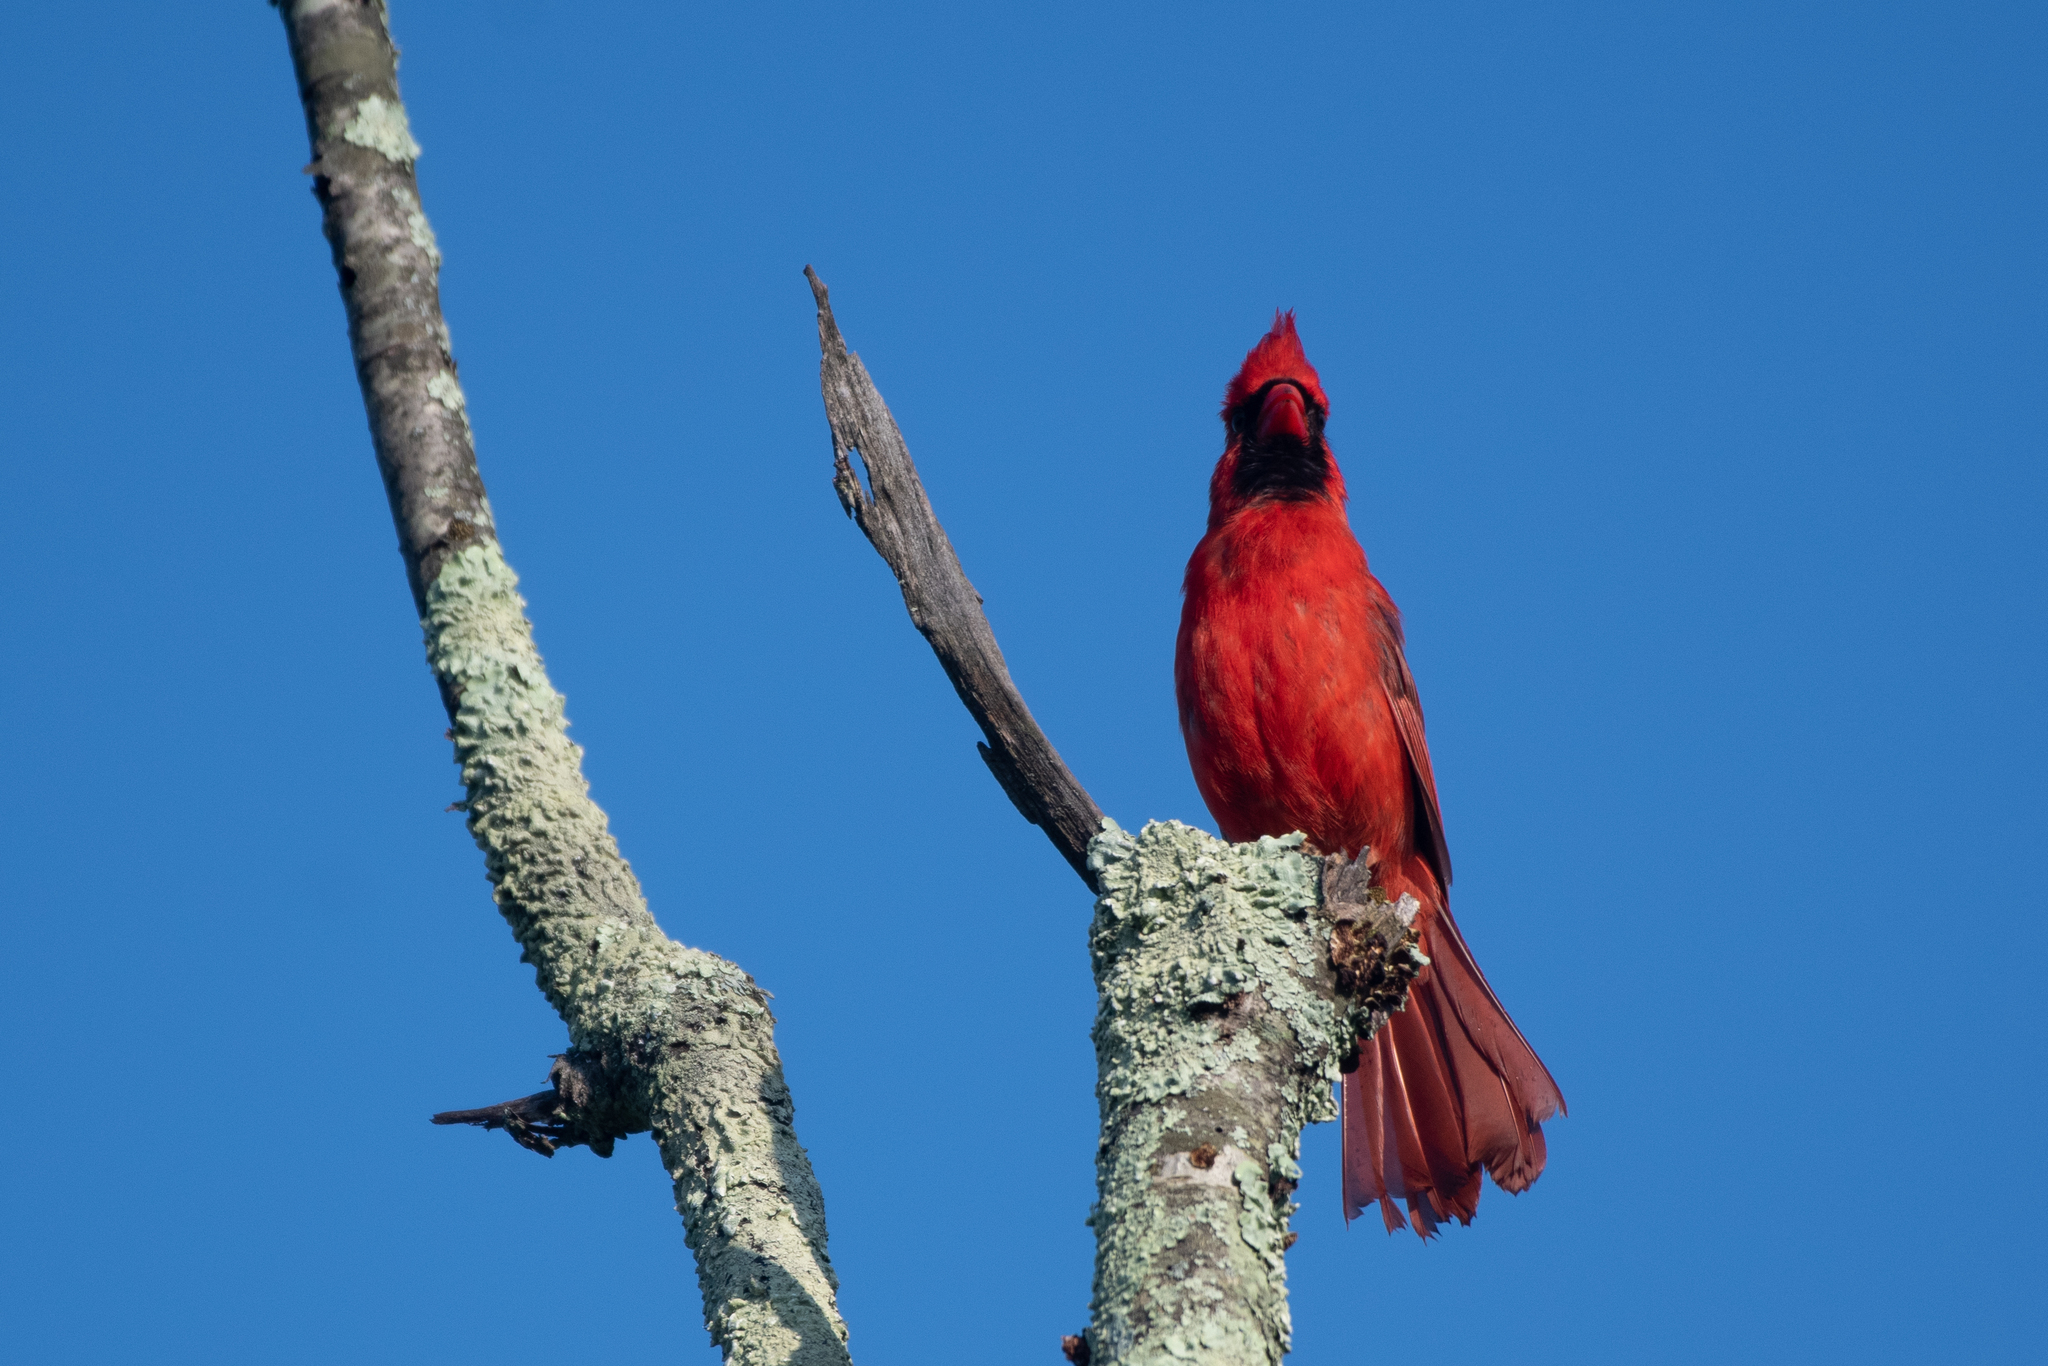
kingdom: Animalia
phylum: Chordata
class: Aves
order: Passeriformes
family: Cardinalidae
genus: Cardinalis
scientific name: Cardinalis cardinalis
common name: Northern cardinal
